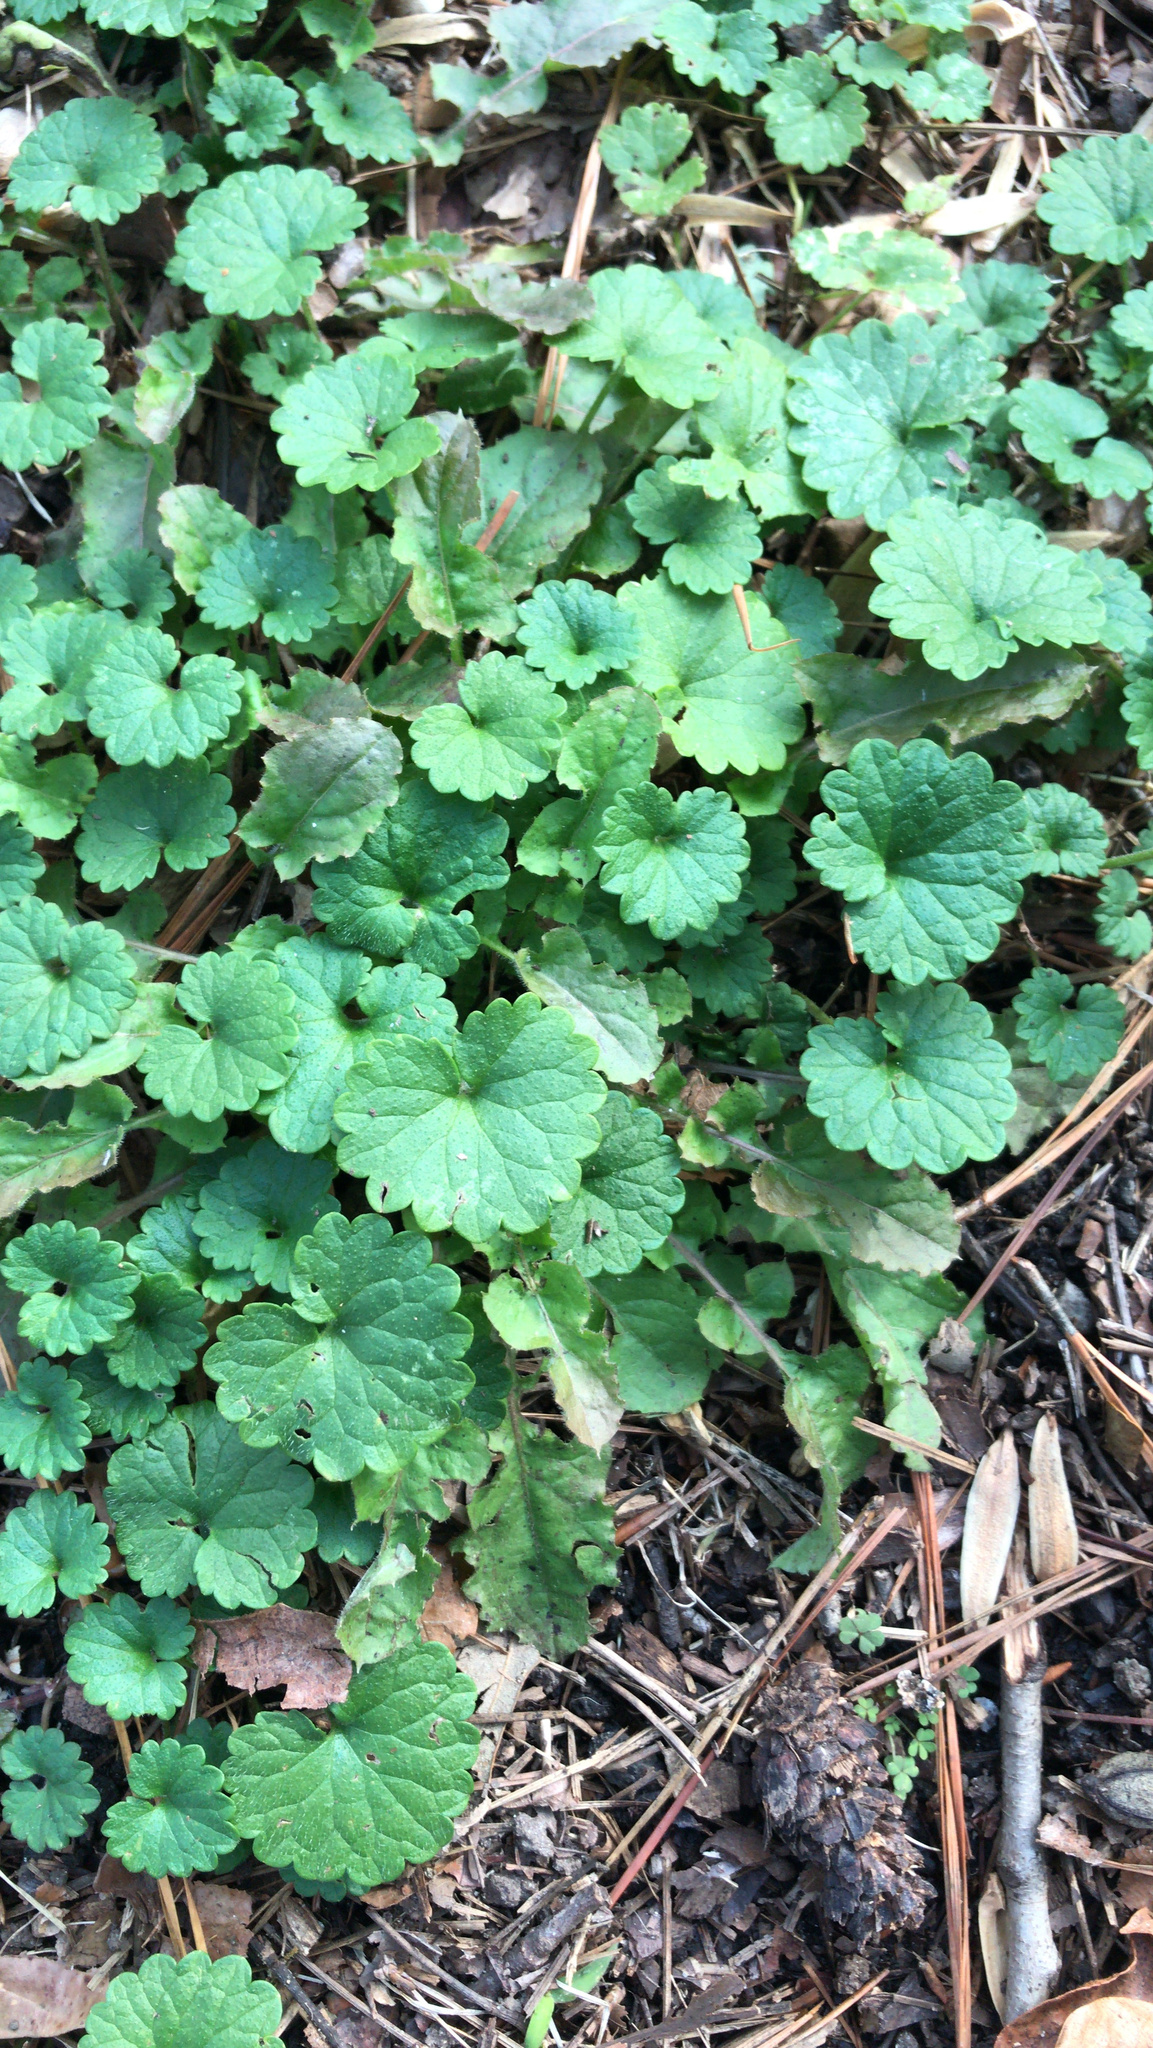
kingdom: Plantae
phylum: Tracheophyta
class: Magnoliopsida
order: Lamiales
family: Lamiaceae
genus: Glechoma
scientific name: Glechoma hederacea
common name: Ground ivy
